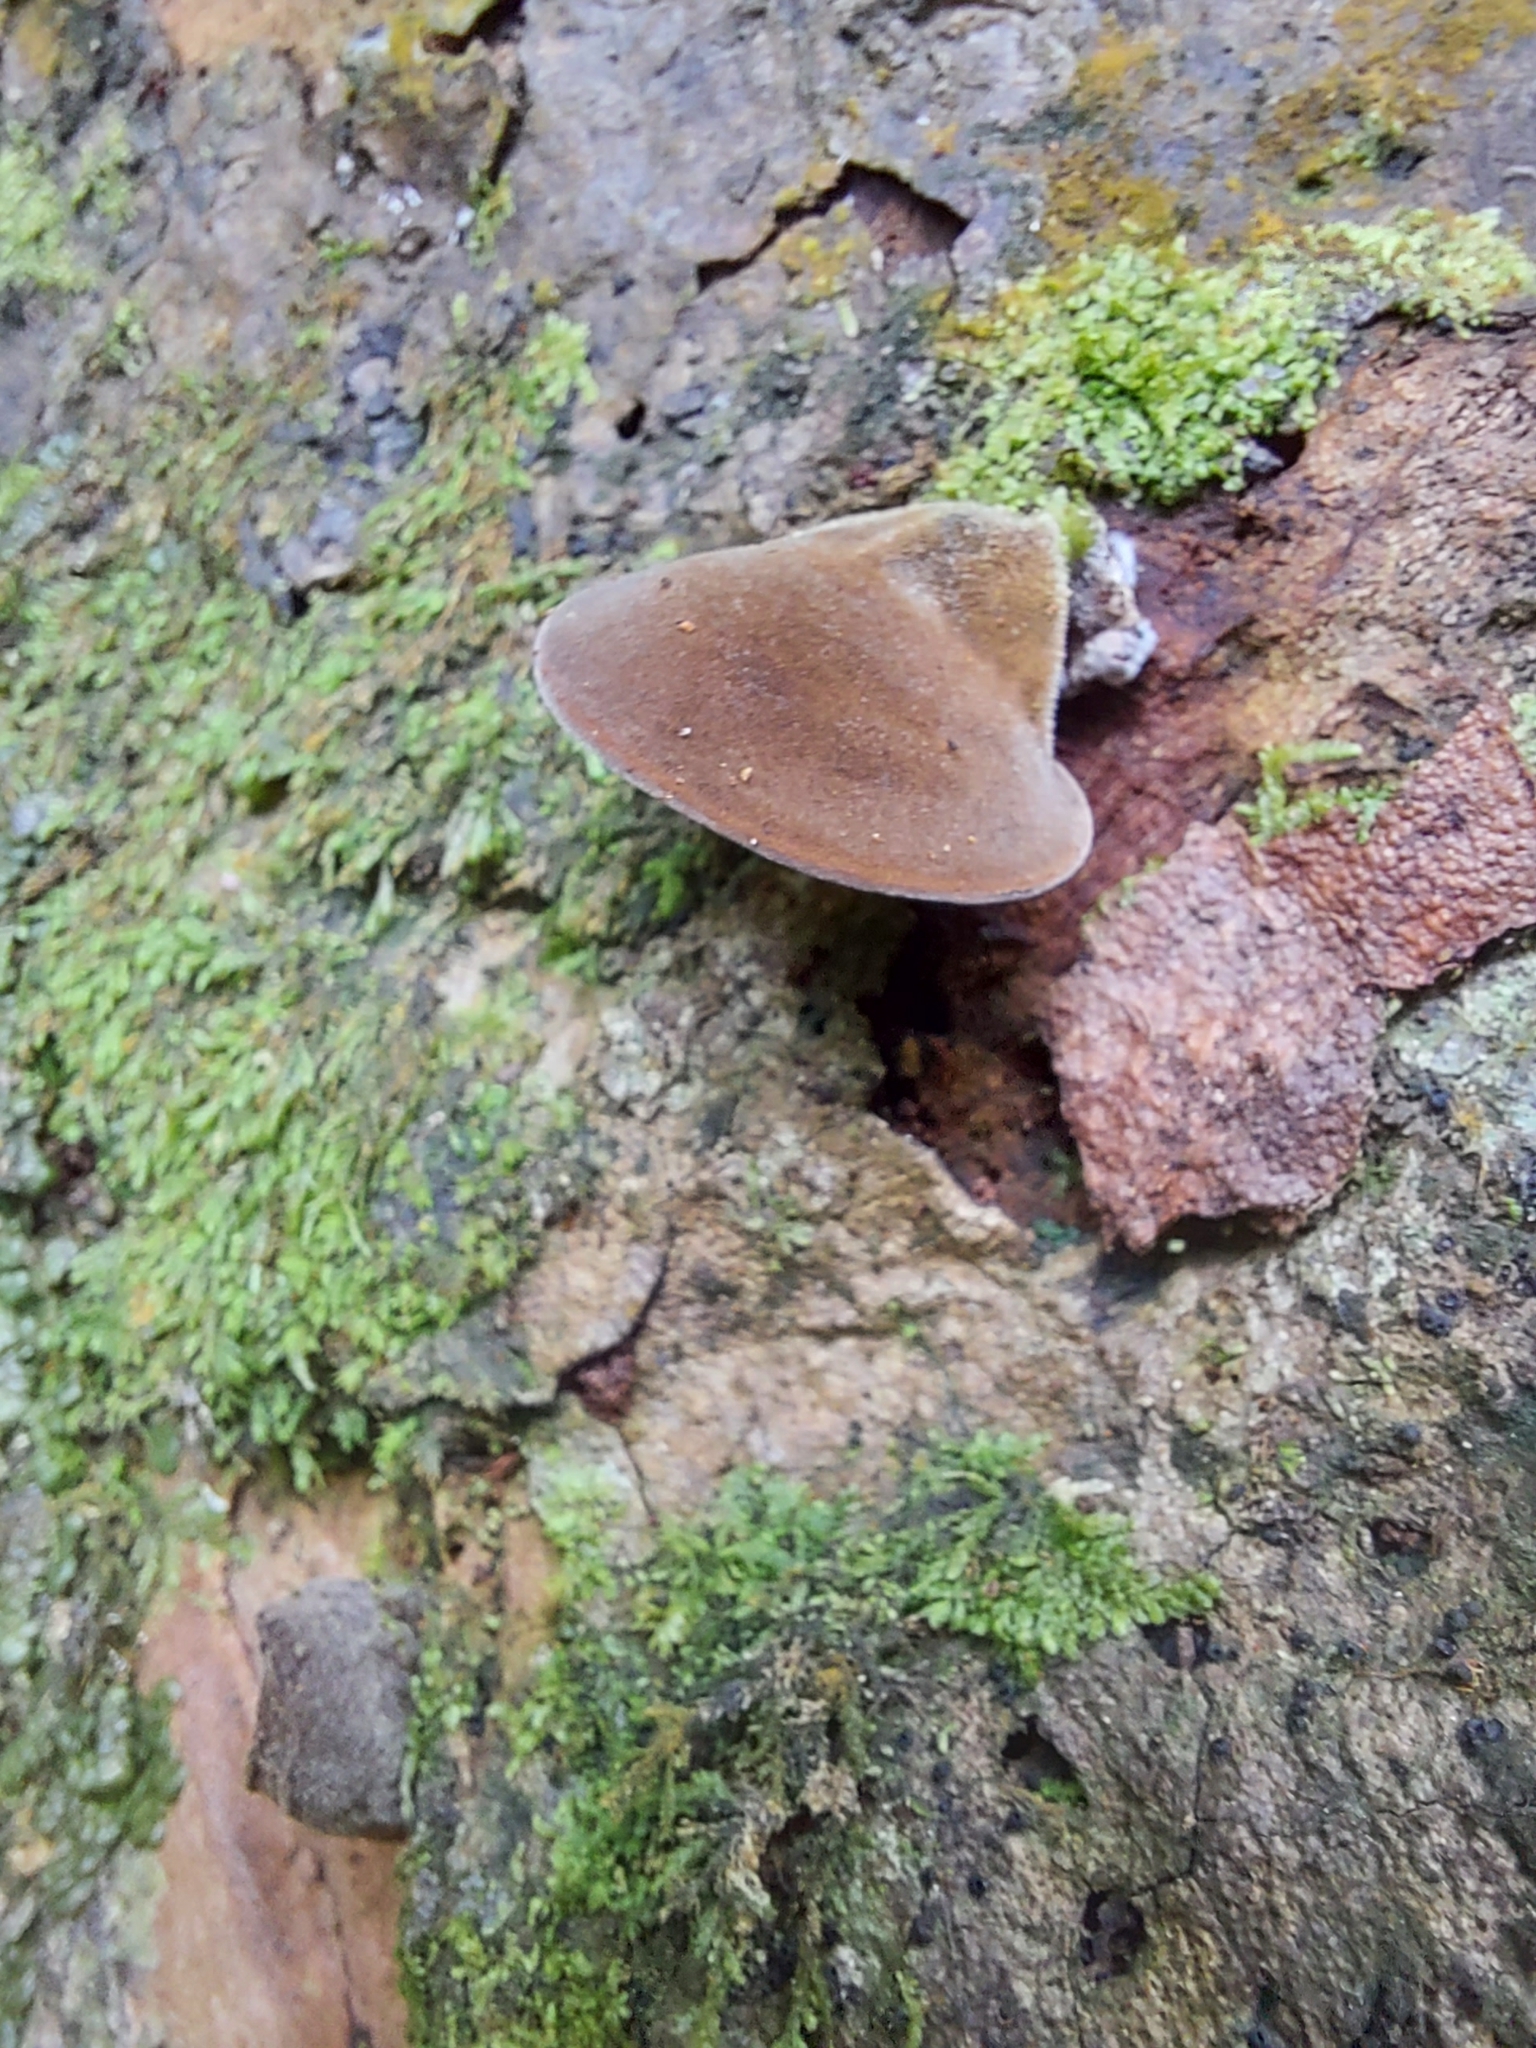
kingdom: Fungi
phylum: Basidiomycota
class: Agaricomycetes
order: Auriculariales
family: Auriculariaceae
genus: Auricularia
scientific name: Auricularia cornea
